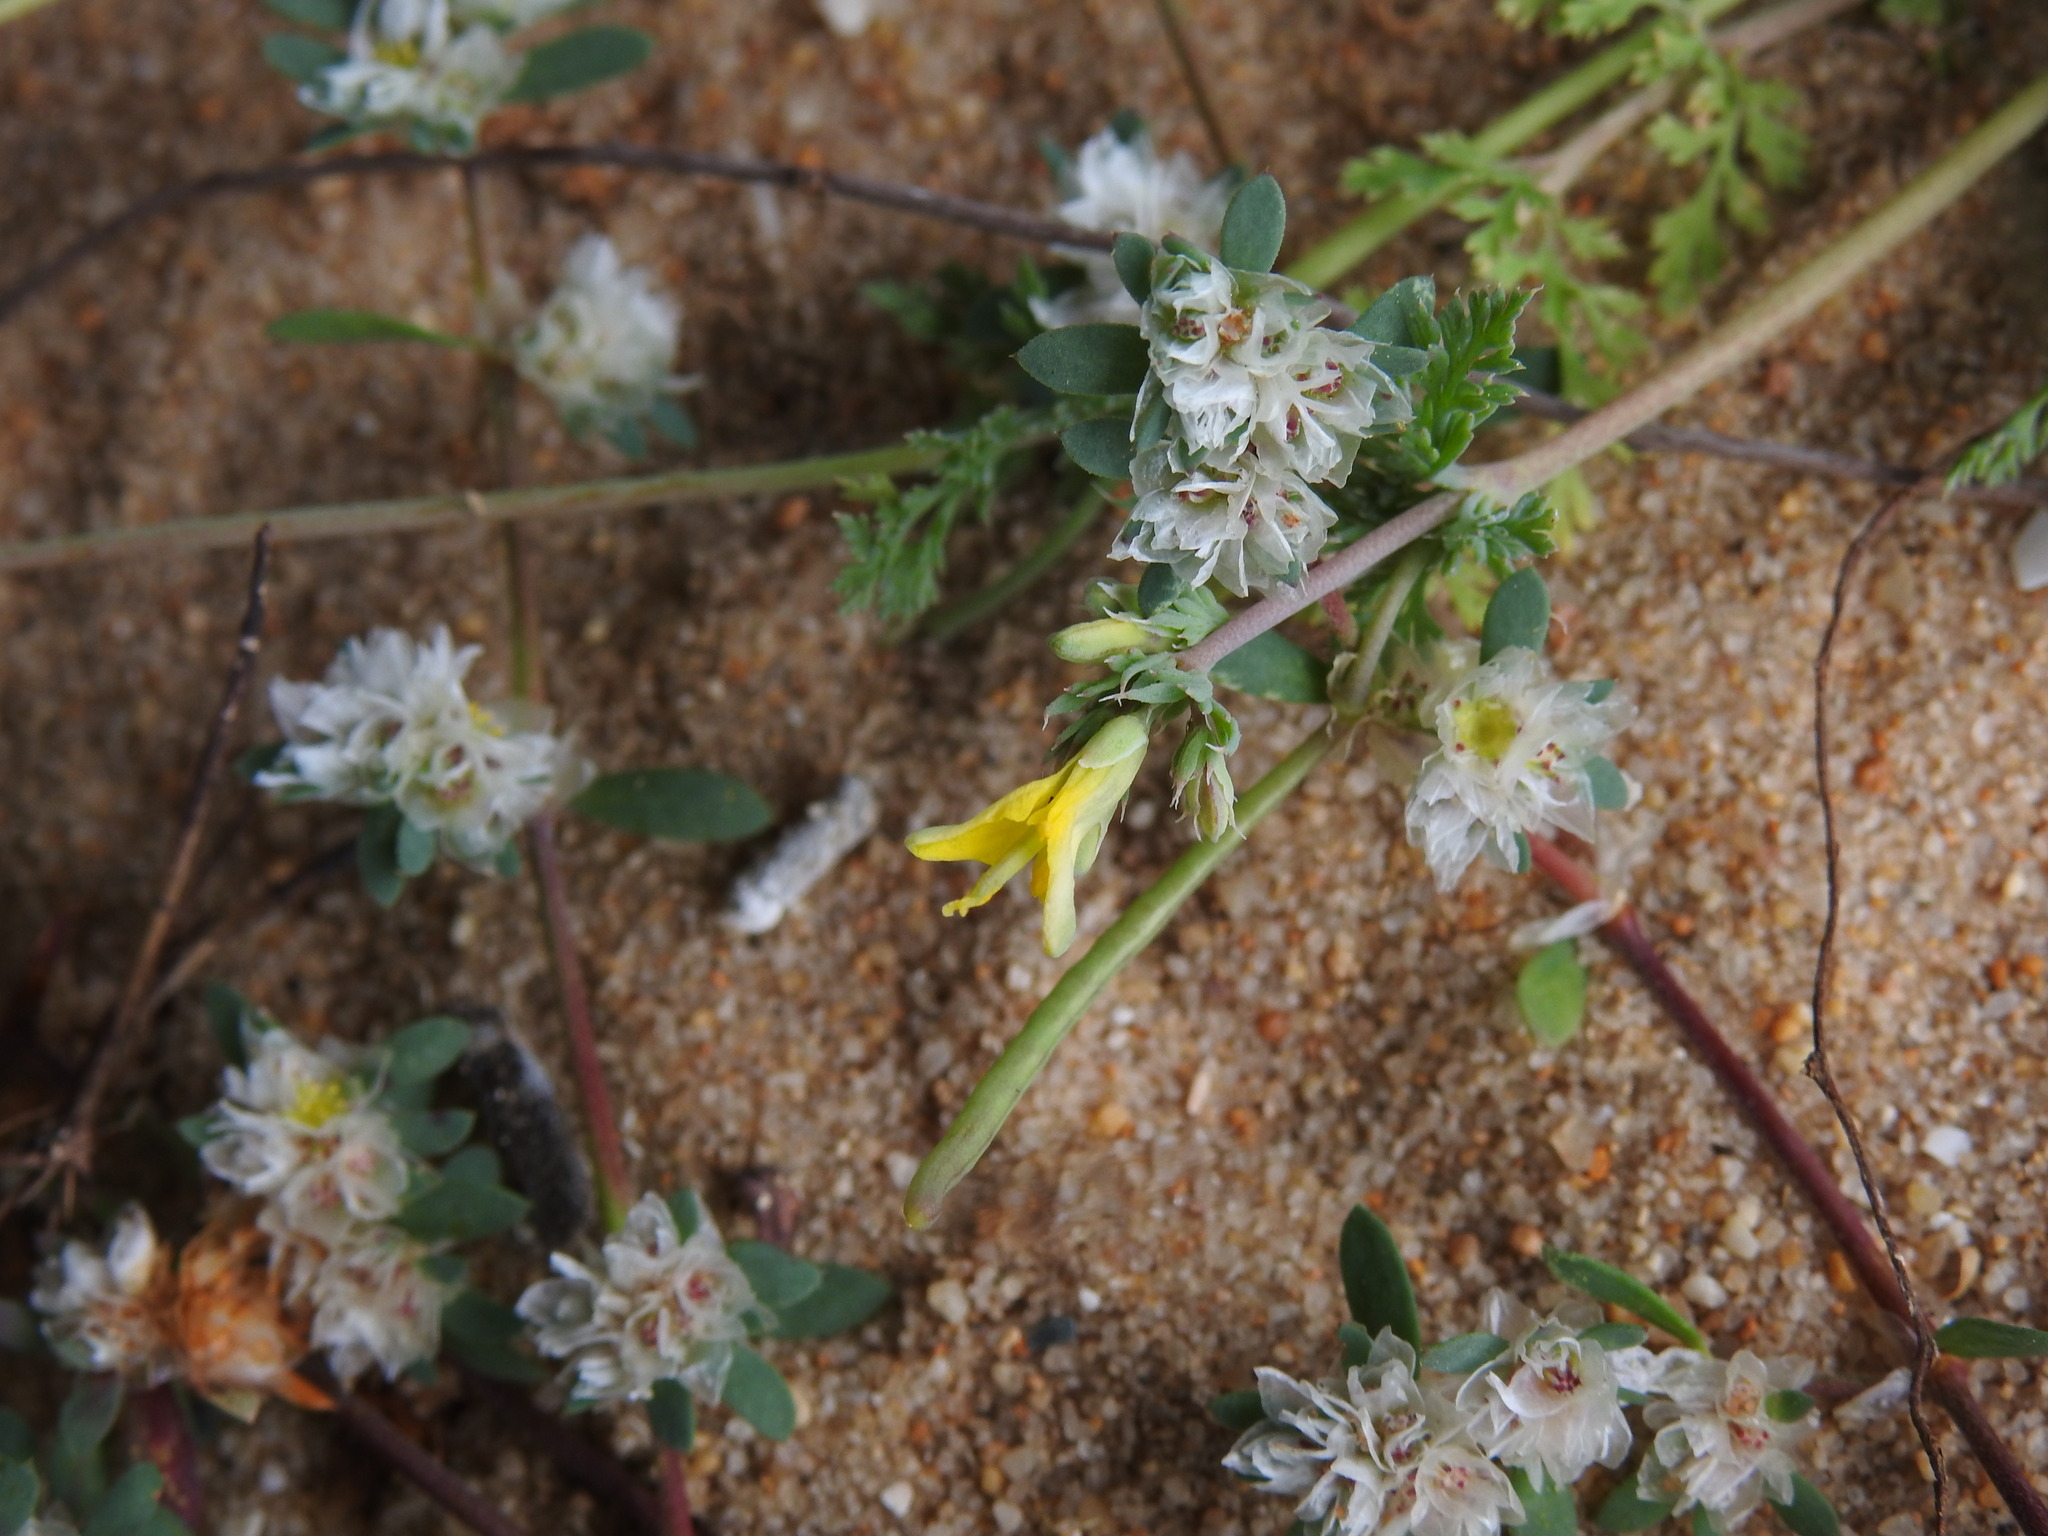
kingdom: Plantae
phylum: Tracheophyta
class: Magnoliopsida
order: Ranunculales
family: Papaveraceae
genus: Hypecoum
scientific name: Hypecoum littorale
